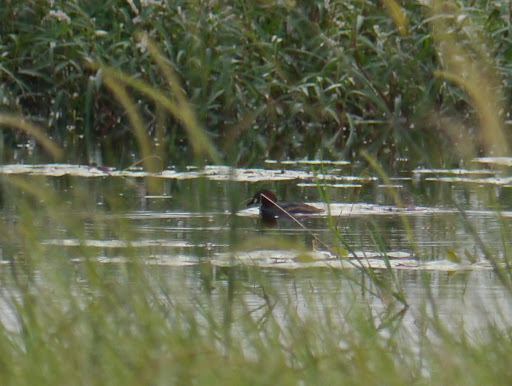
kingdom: Animalia
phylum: Chordata
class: Aves
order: Podicipediformes
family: Podicipedidae
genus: Tachybaptus
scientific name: Tachybaptus ruficollis
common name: Little grebe
